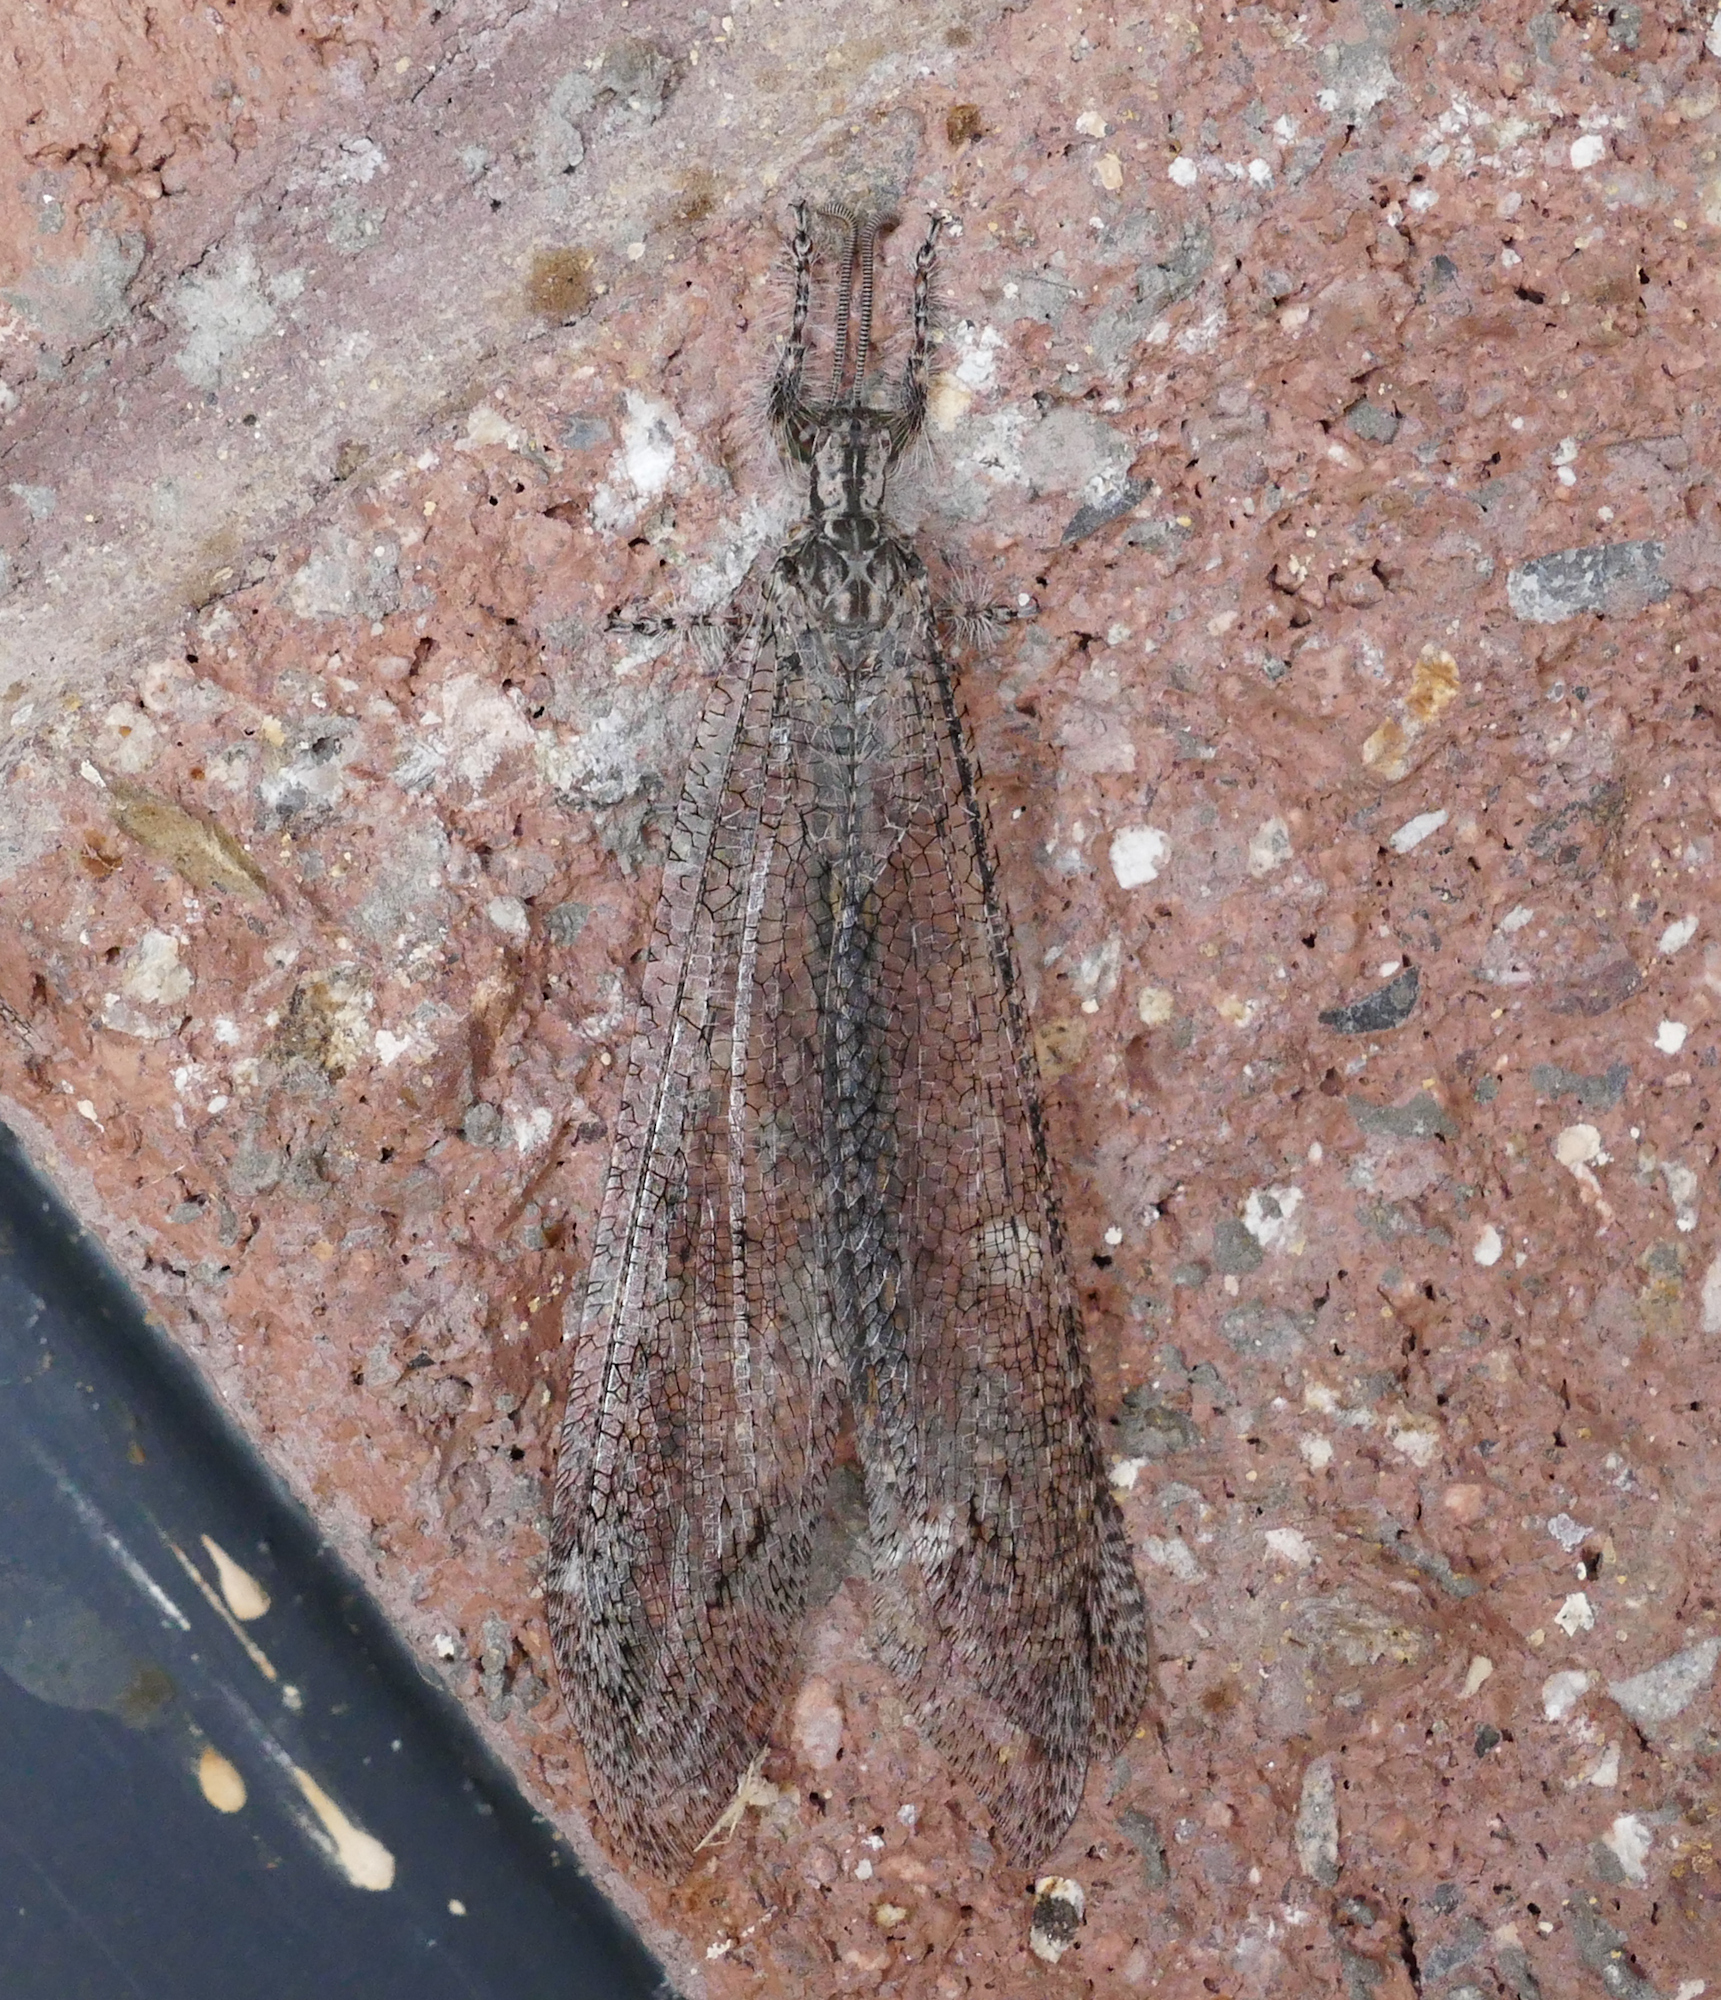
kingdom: Animalia
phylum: Arthropoda
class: Insecta
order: Neuroptera
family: Myrmeleontidae
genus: Vella
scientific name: Vella fallax
